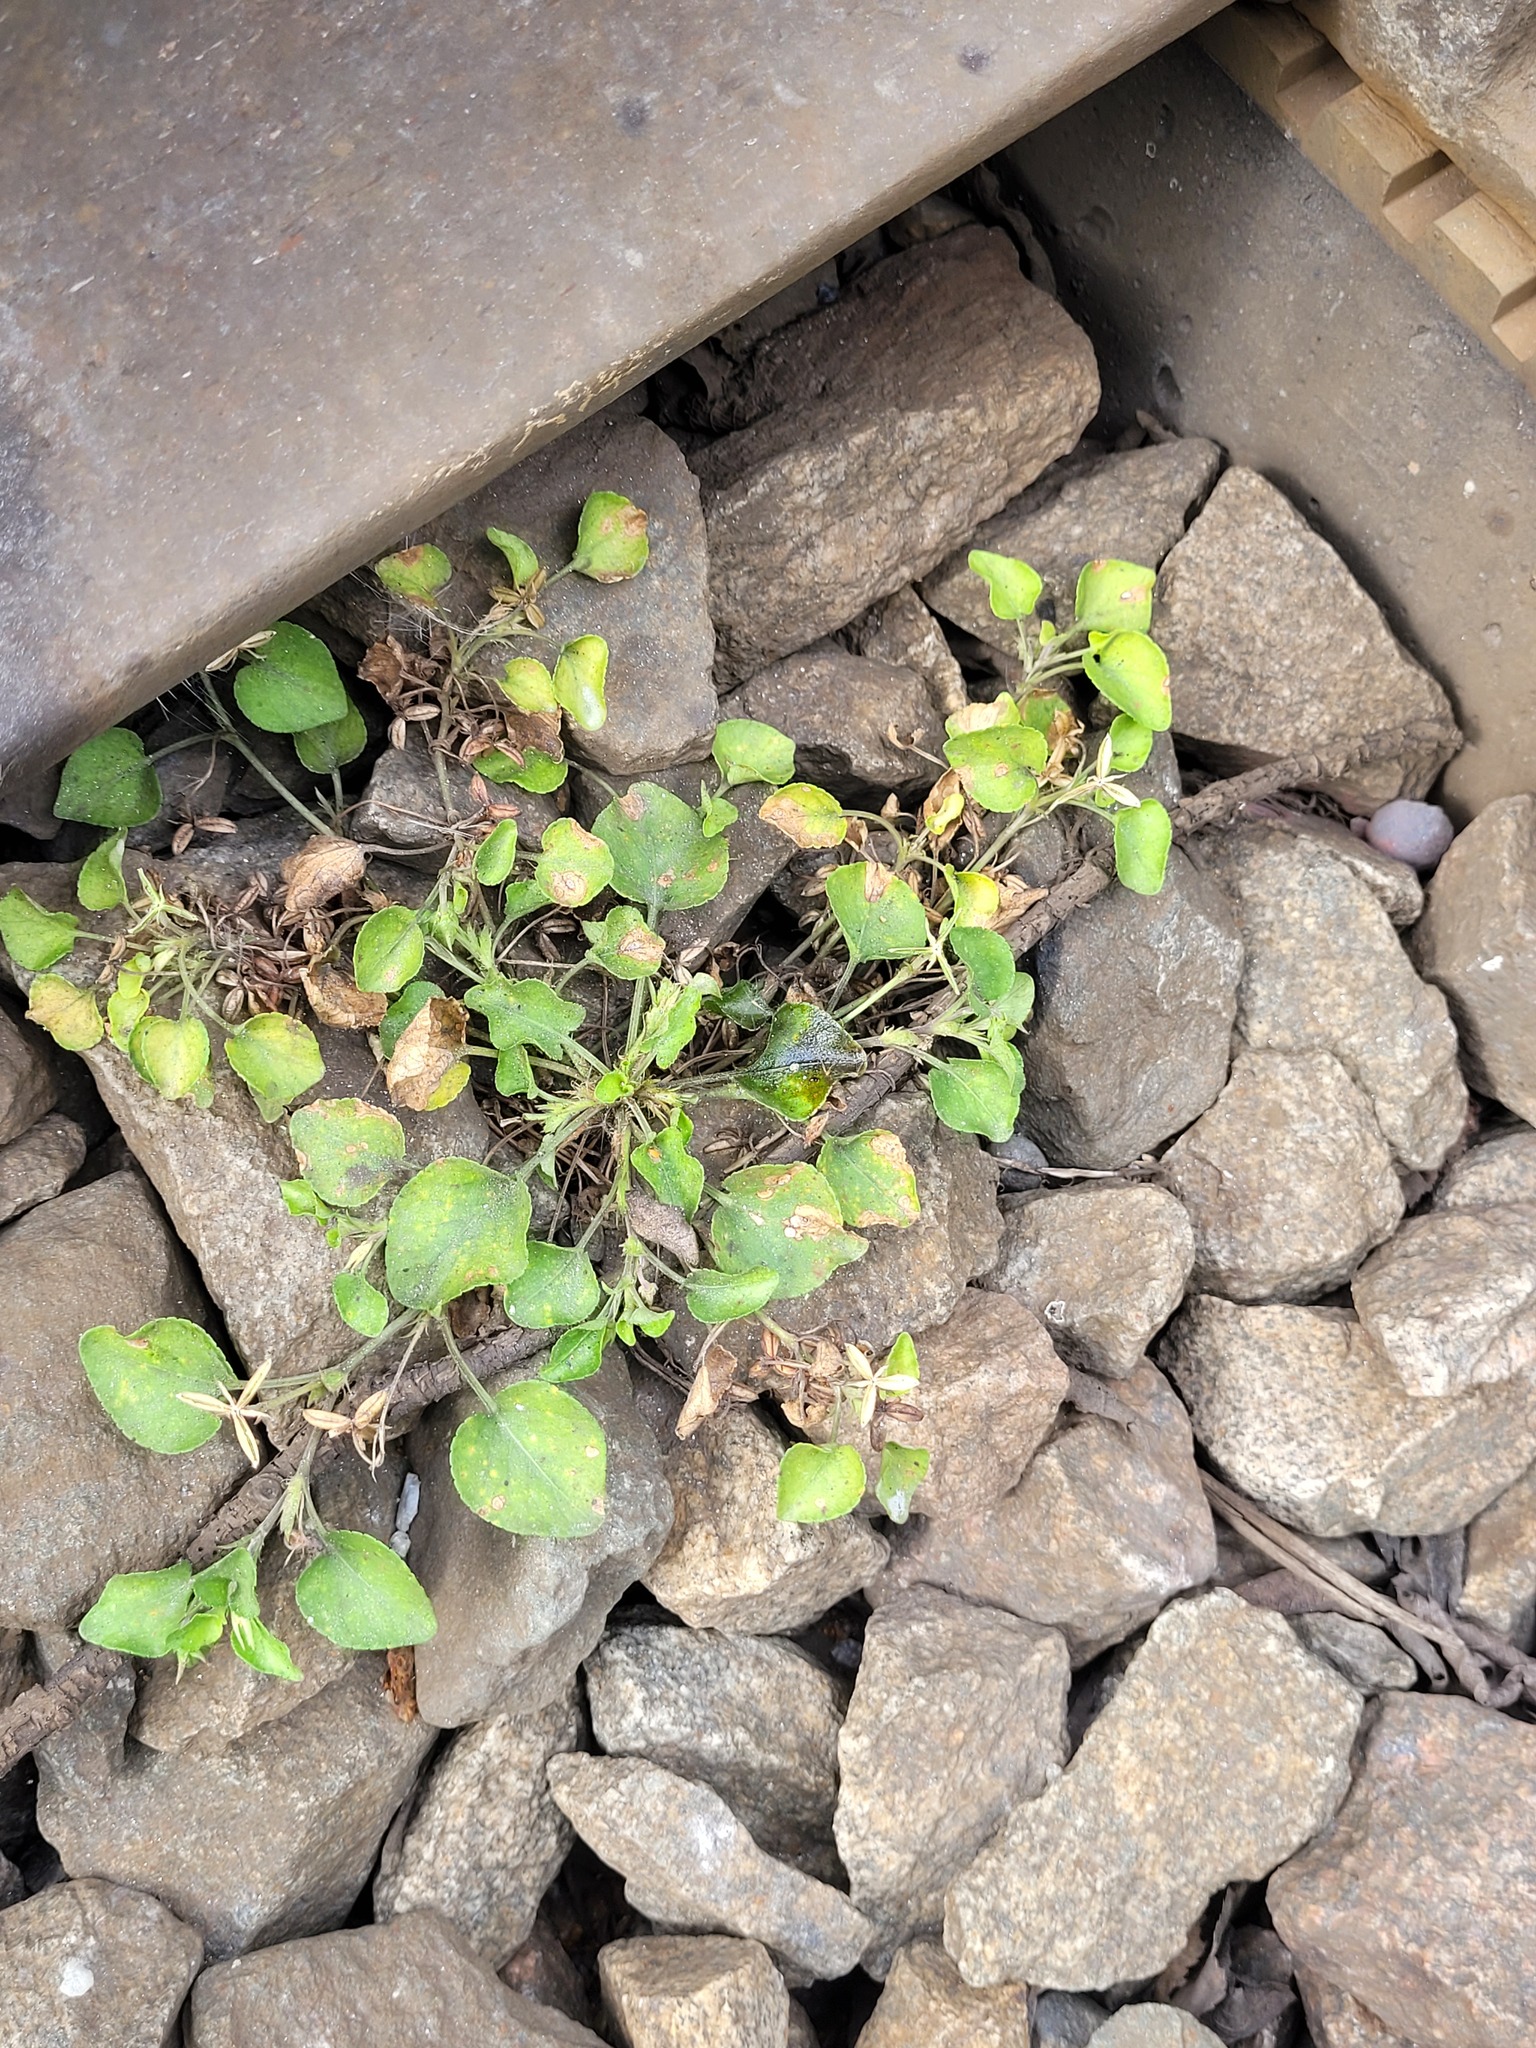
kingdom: Plantae
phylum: Tracheophyta
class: Magnoliopsida
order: Malpighiales
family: Violaceae
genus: Viola
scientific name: Viola rupestris
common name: Teesdale violet
